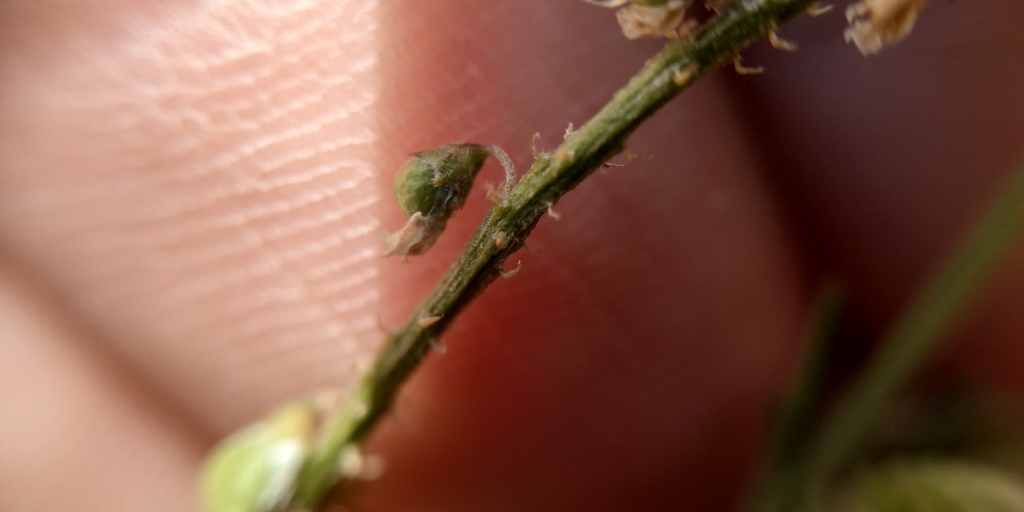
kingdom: Plantae
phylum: Tracheophyta
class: Magnoliopsida
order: Fabales
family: Fabaceae
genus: Melilotus
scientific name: Melilotus dentatus
